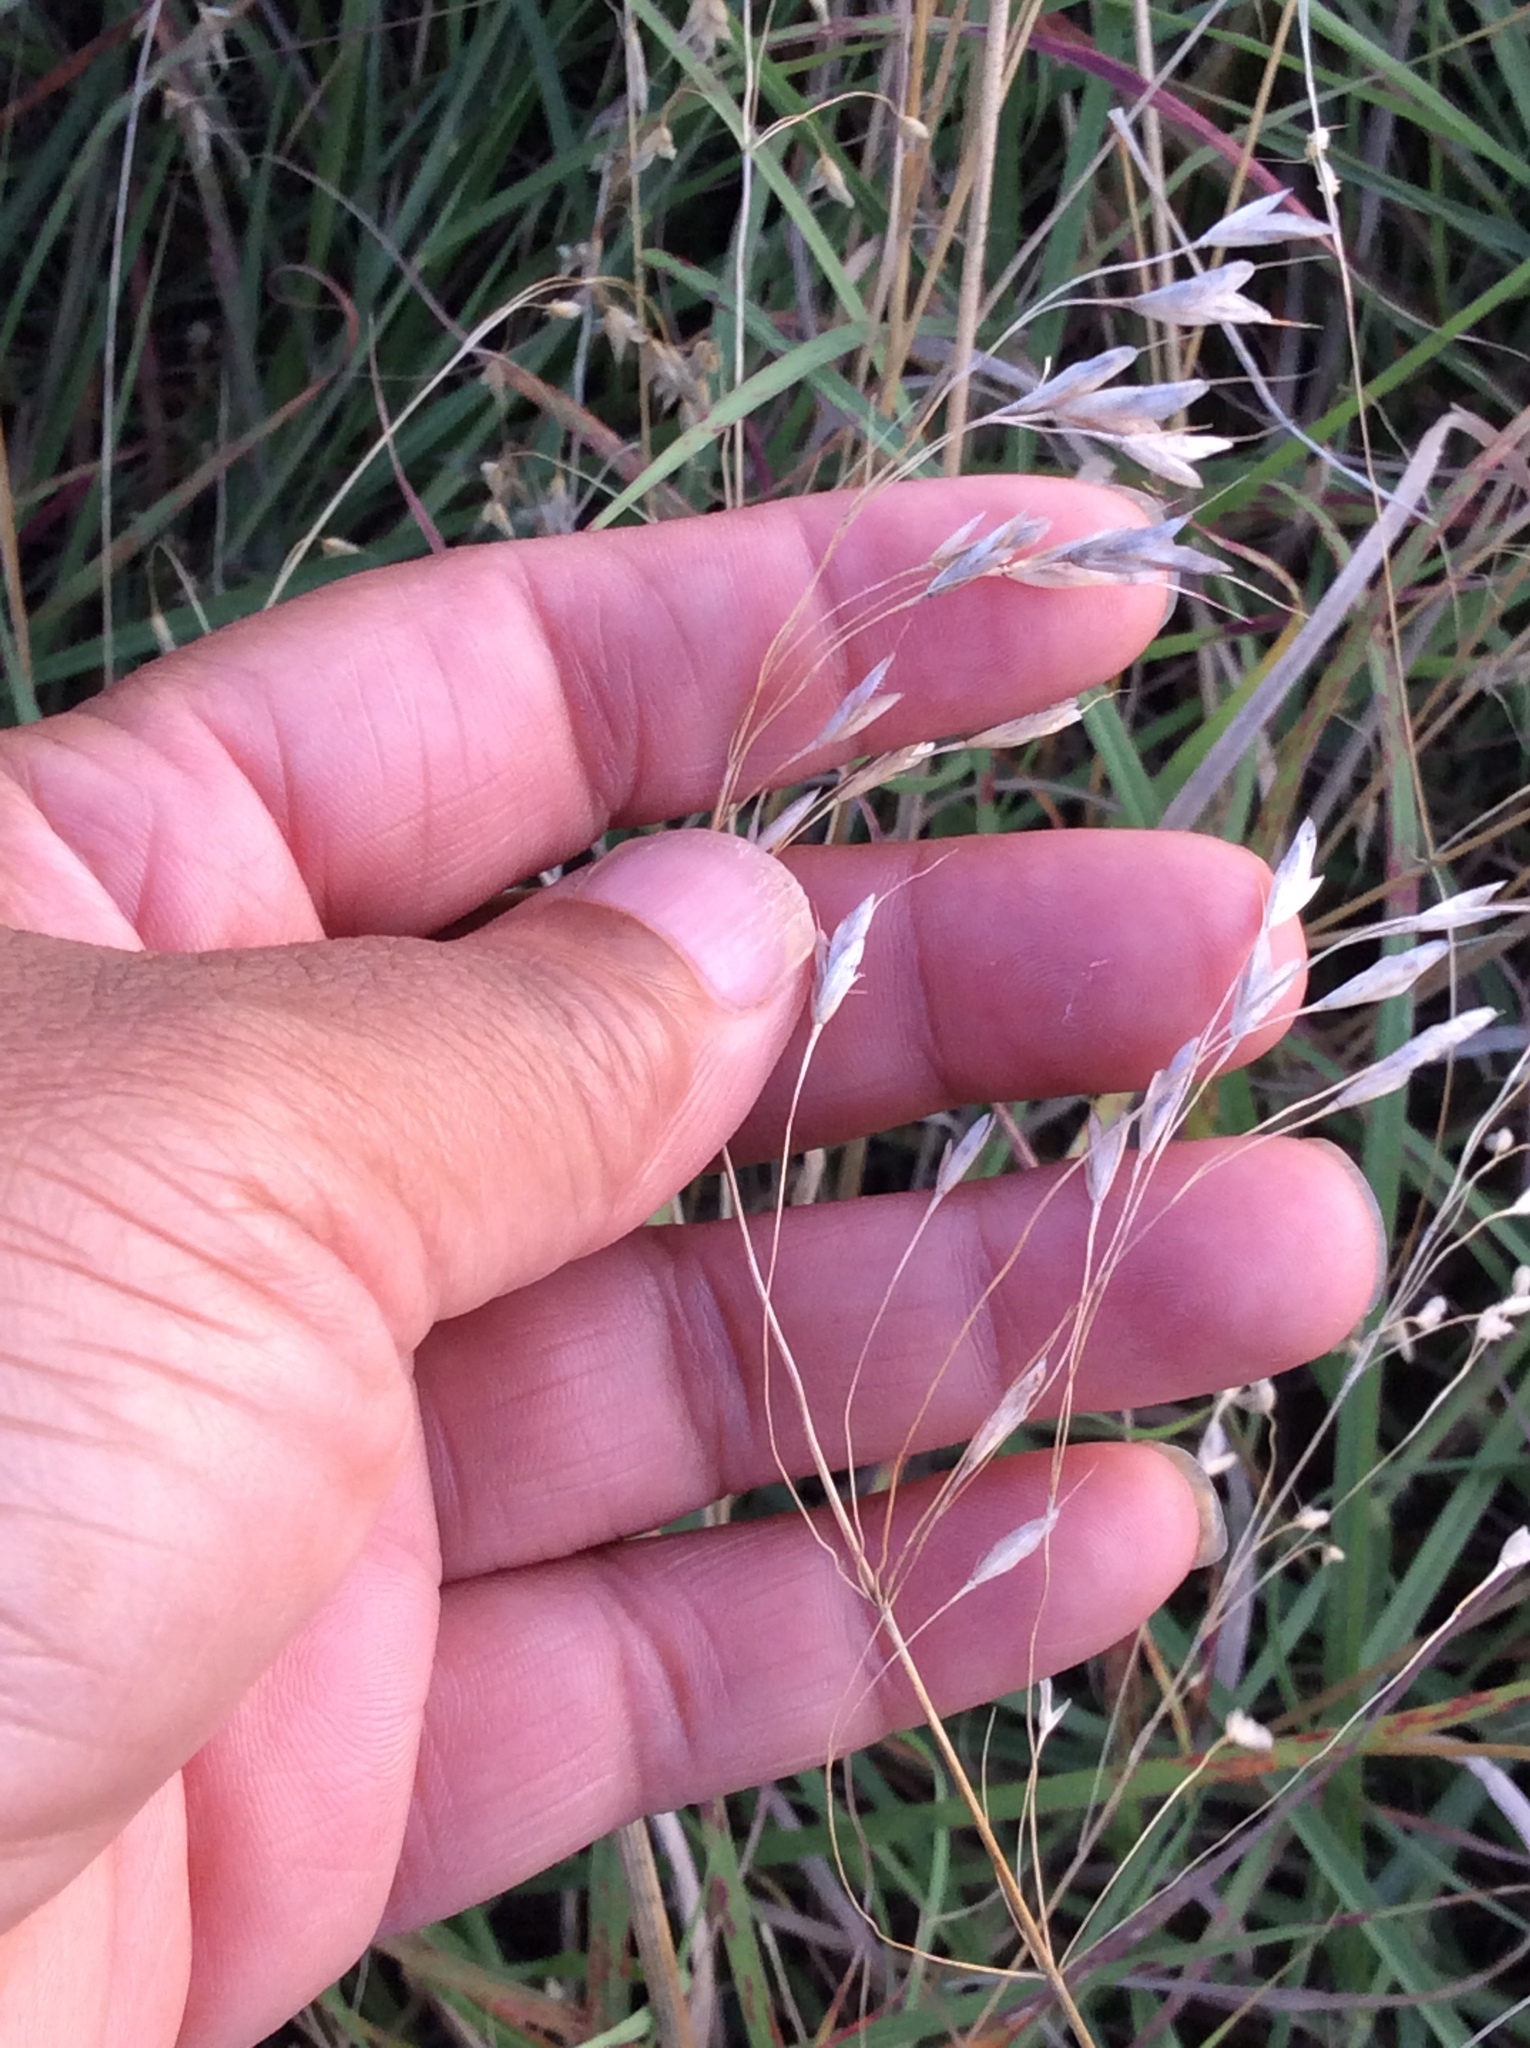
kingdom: Plantae
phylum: Tracheophyta
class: Liliopsida
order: Poales
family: Poaceae
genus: Bromus
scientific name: Bromus japonicus
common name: Japanese brome
